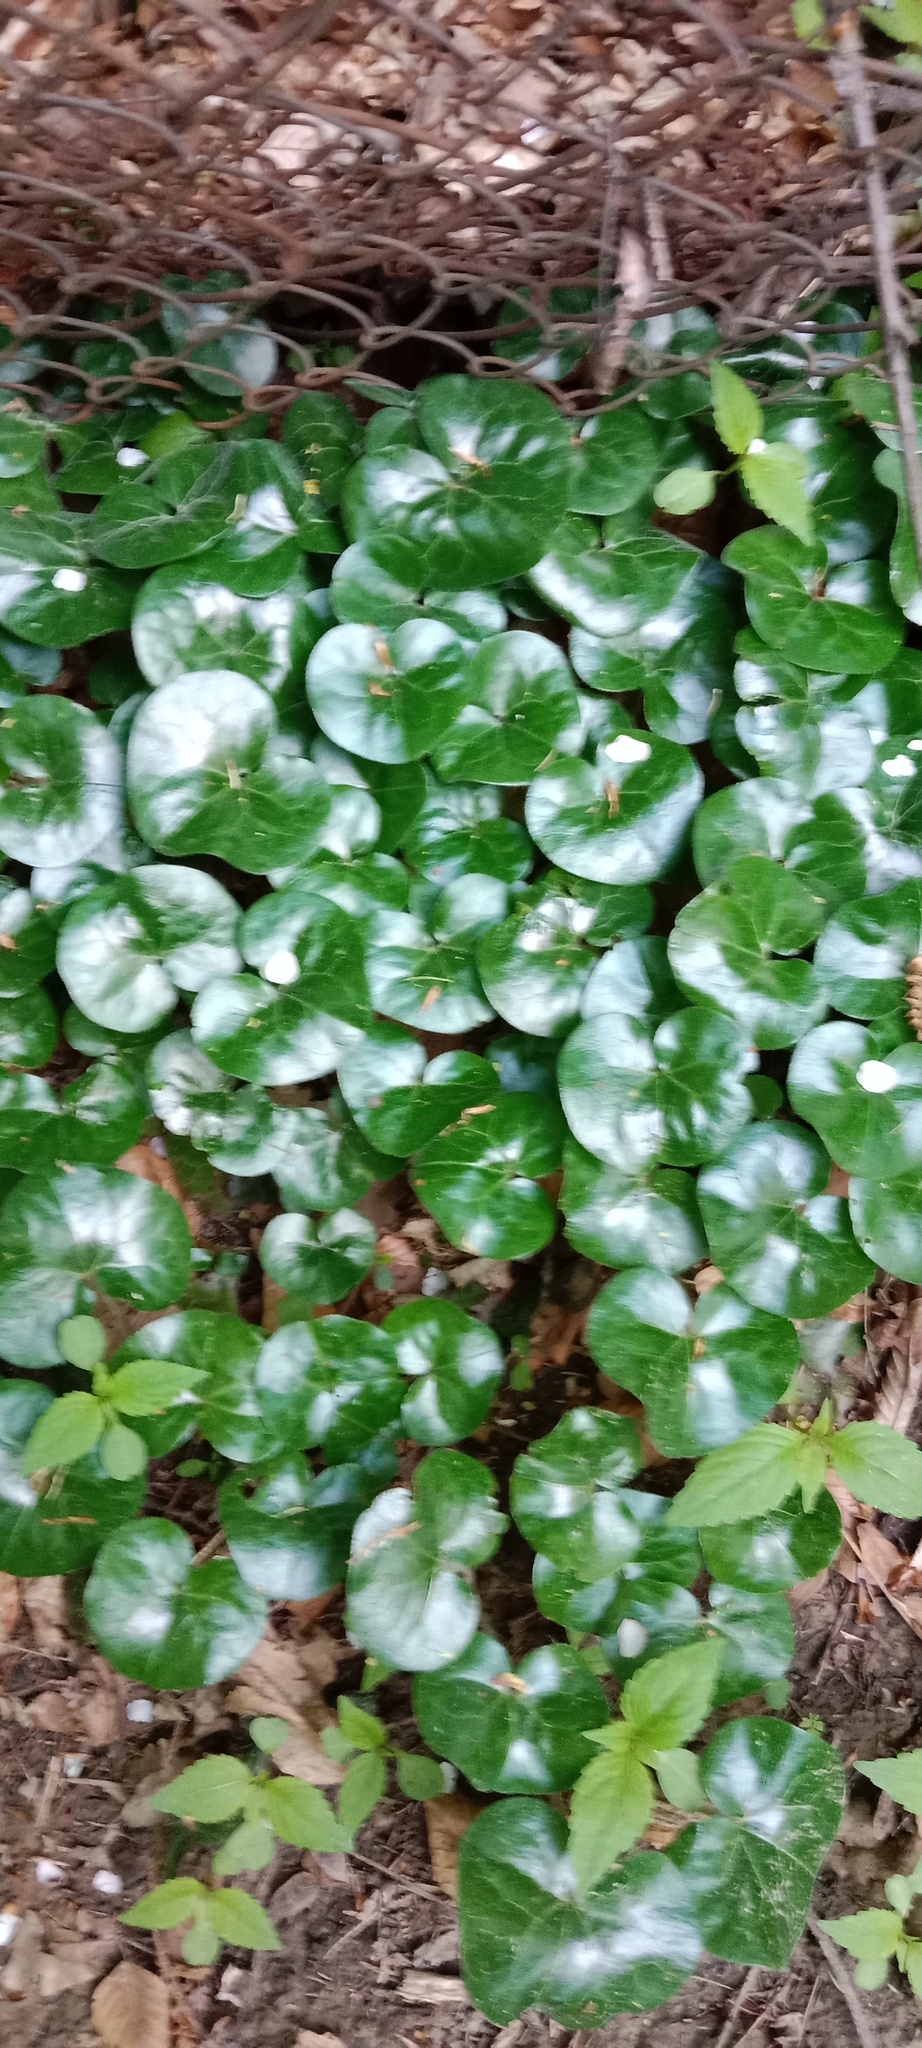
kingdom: Plantae
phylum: Tracheophyta
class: Magnoliopsida
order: Piperales
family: Aristolochiaceae
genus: Asarum
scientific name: Asarum europaeum
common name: Asarabacca
